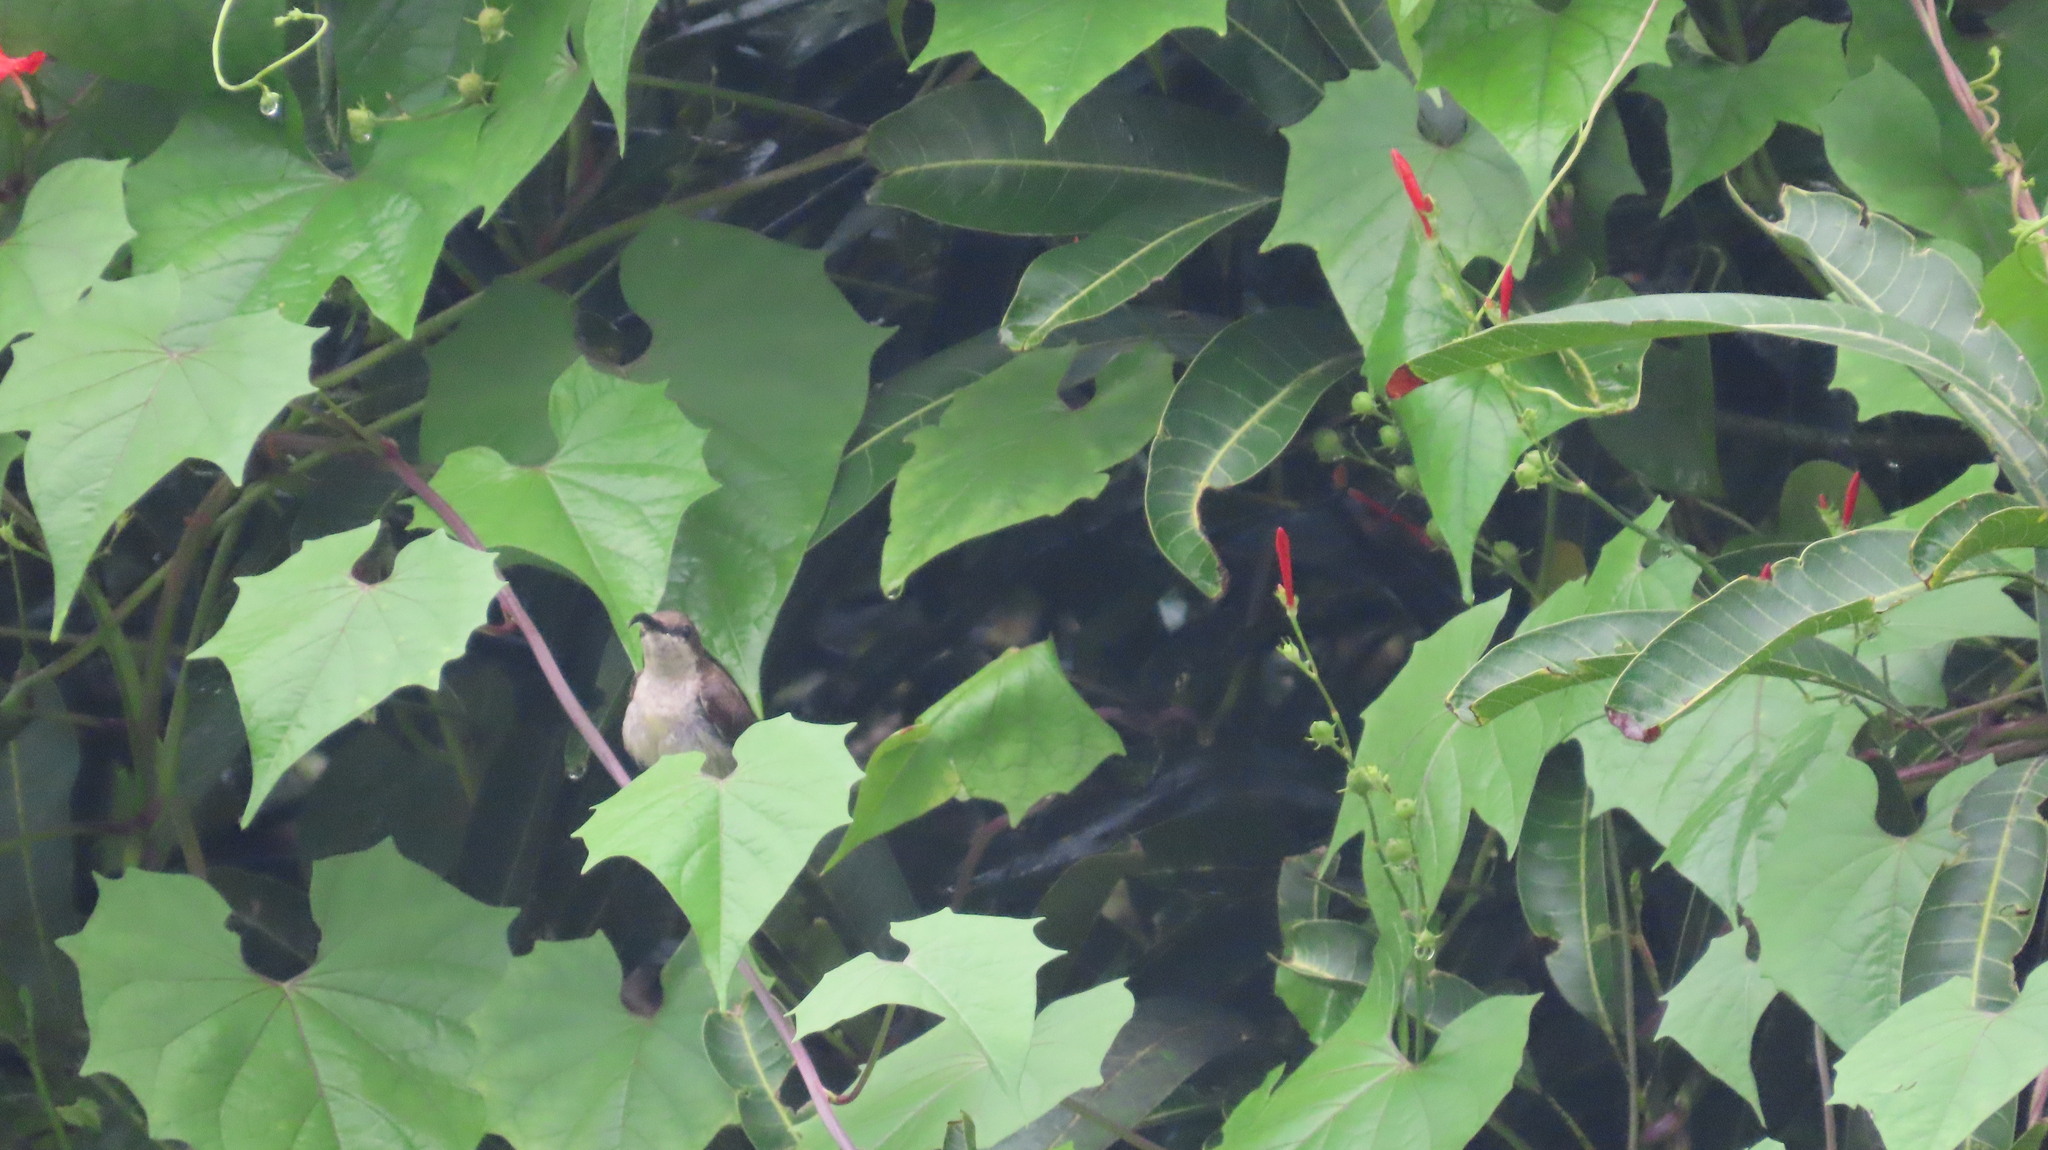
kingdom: Animalia
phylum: Chordata
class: Aves
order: Passeriformes
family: Nectariniidae
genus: Cinnyris
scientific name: Cinnyris lotenius
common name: Loten's sunbird
